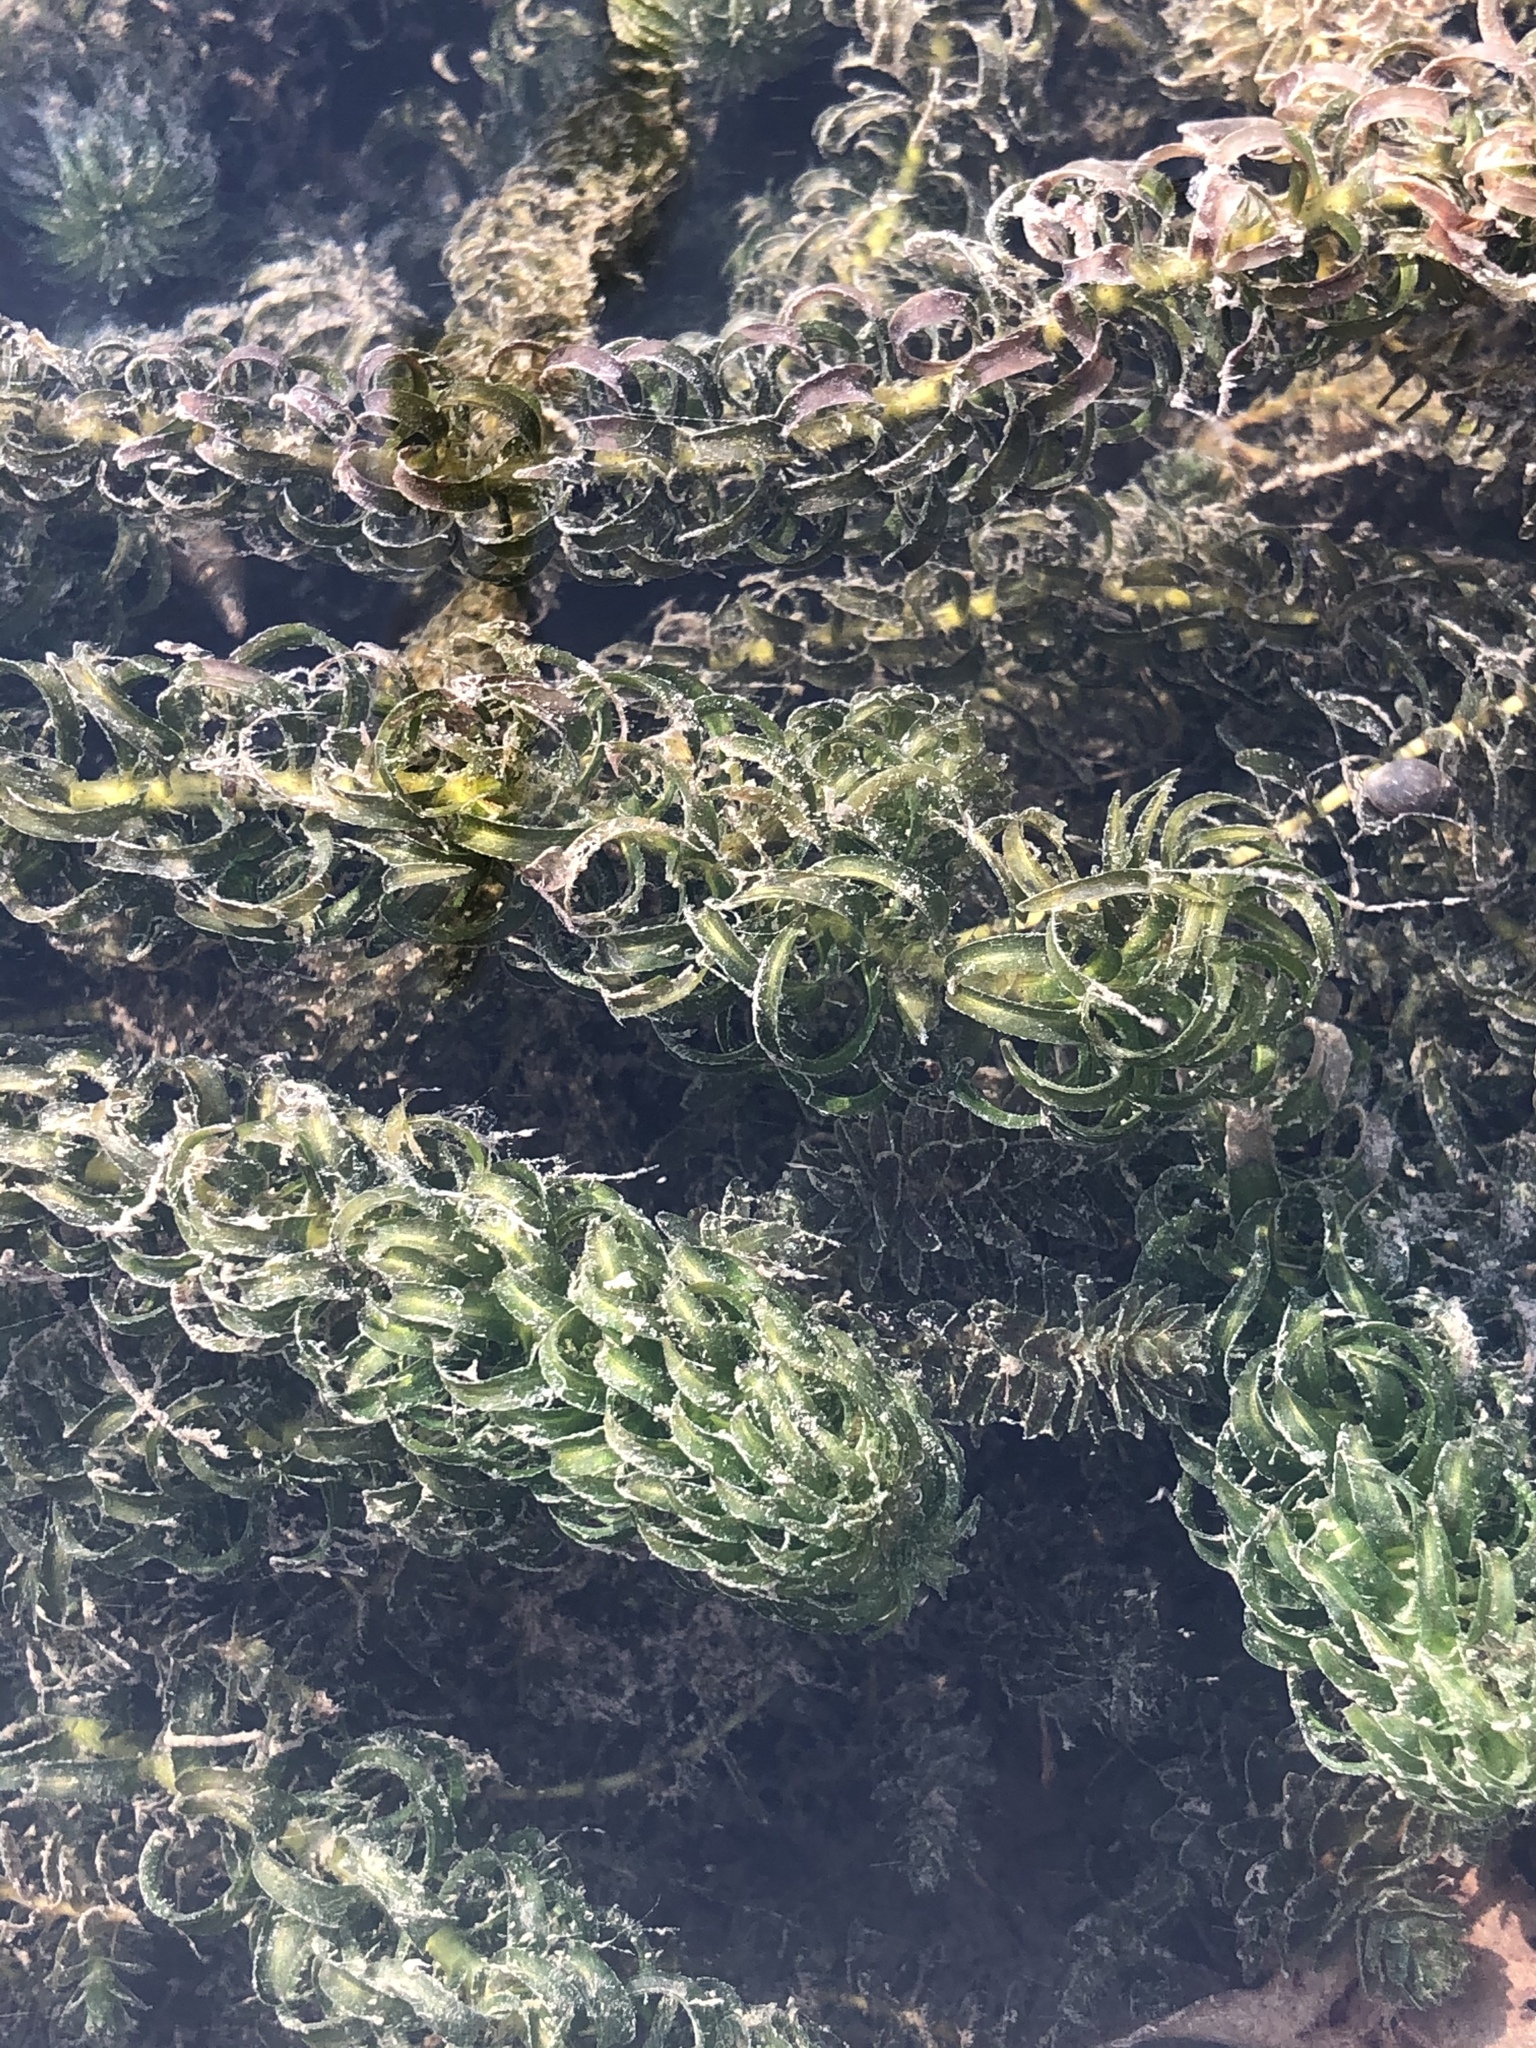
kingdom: Plantae
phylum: Tracheophyta
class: Liliopsida
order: Alismatales
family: Hydrocharitaceae
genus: Lagarosiphon
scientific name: Lagarosiphon major
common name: Curly waterweed
